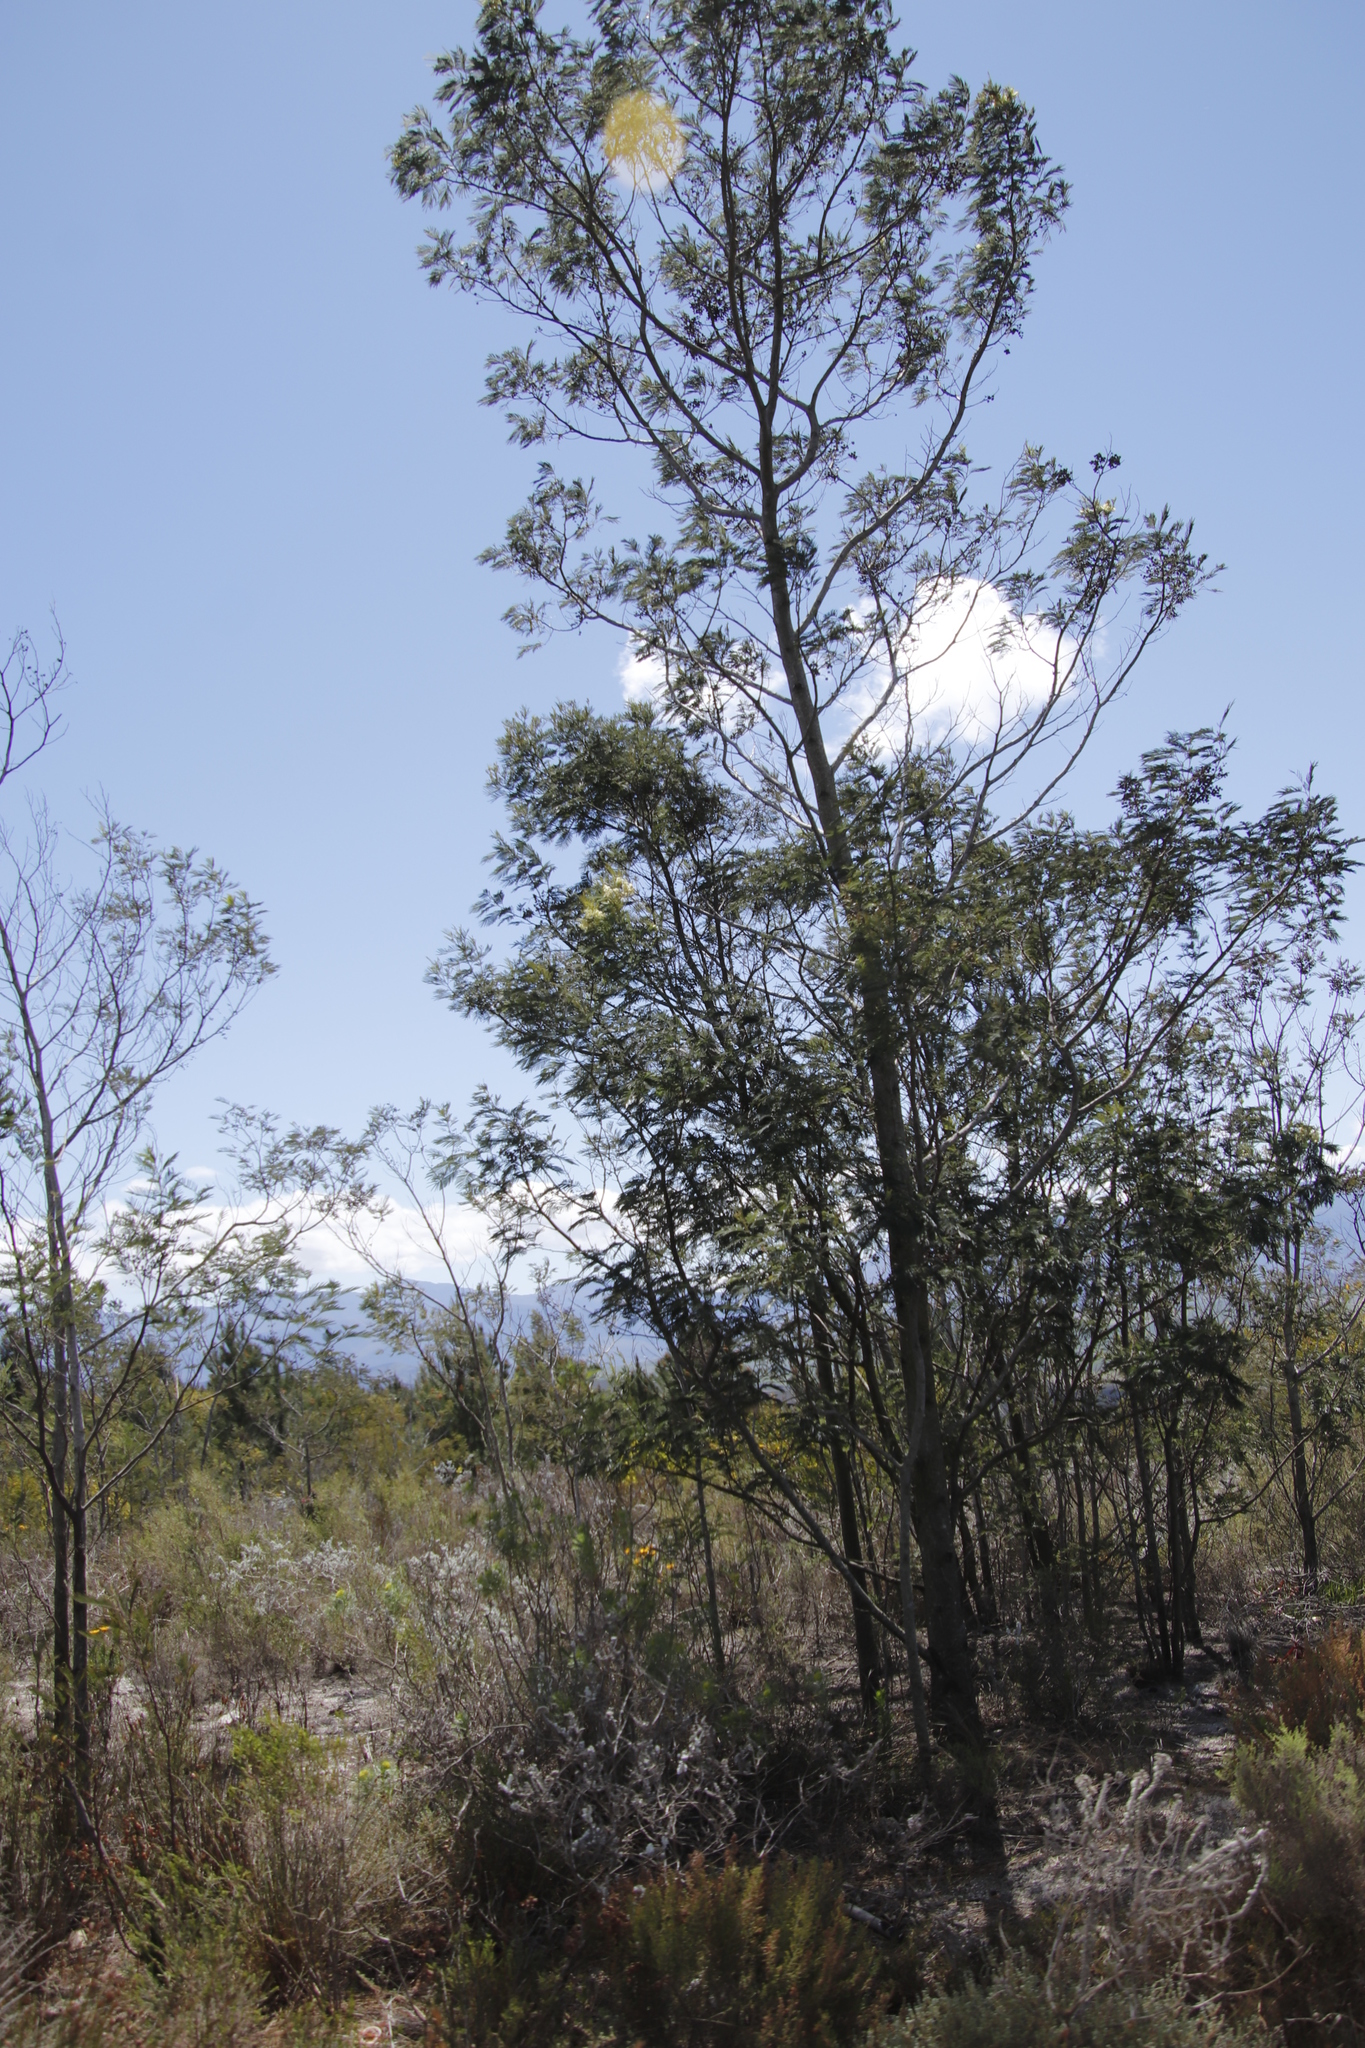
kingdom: Plantae
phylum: Tracheophyta
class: Magnoliopsida
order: Fabales
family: Fabaceae
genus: Acacia
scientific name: Acacia mearnsii
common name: Black wattle
